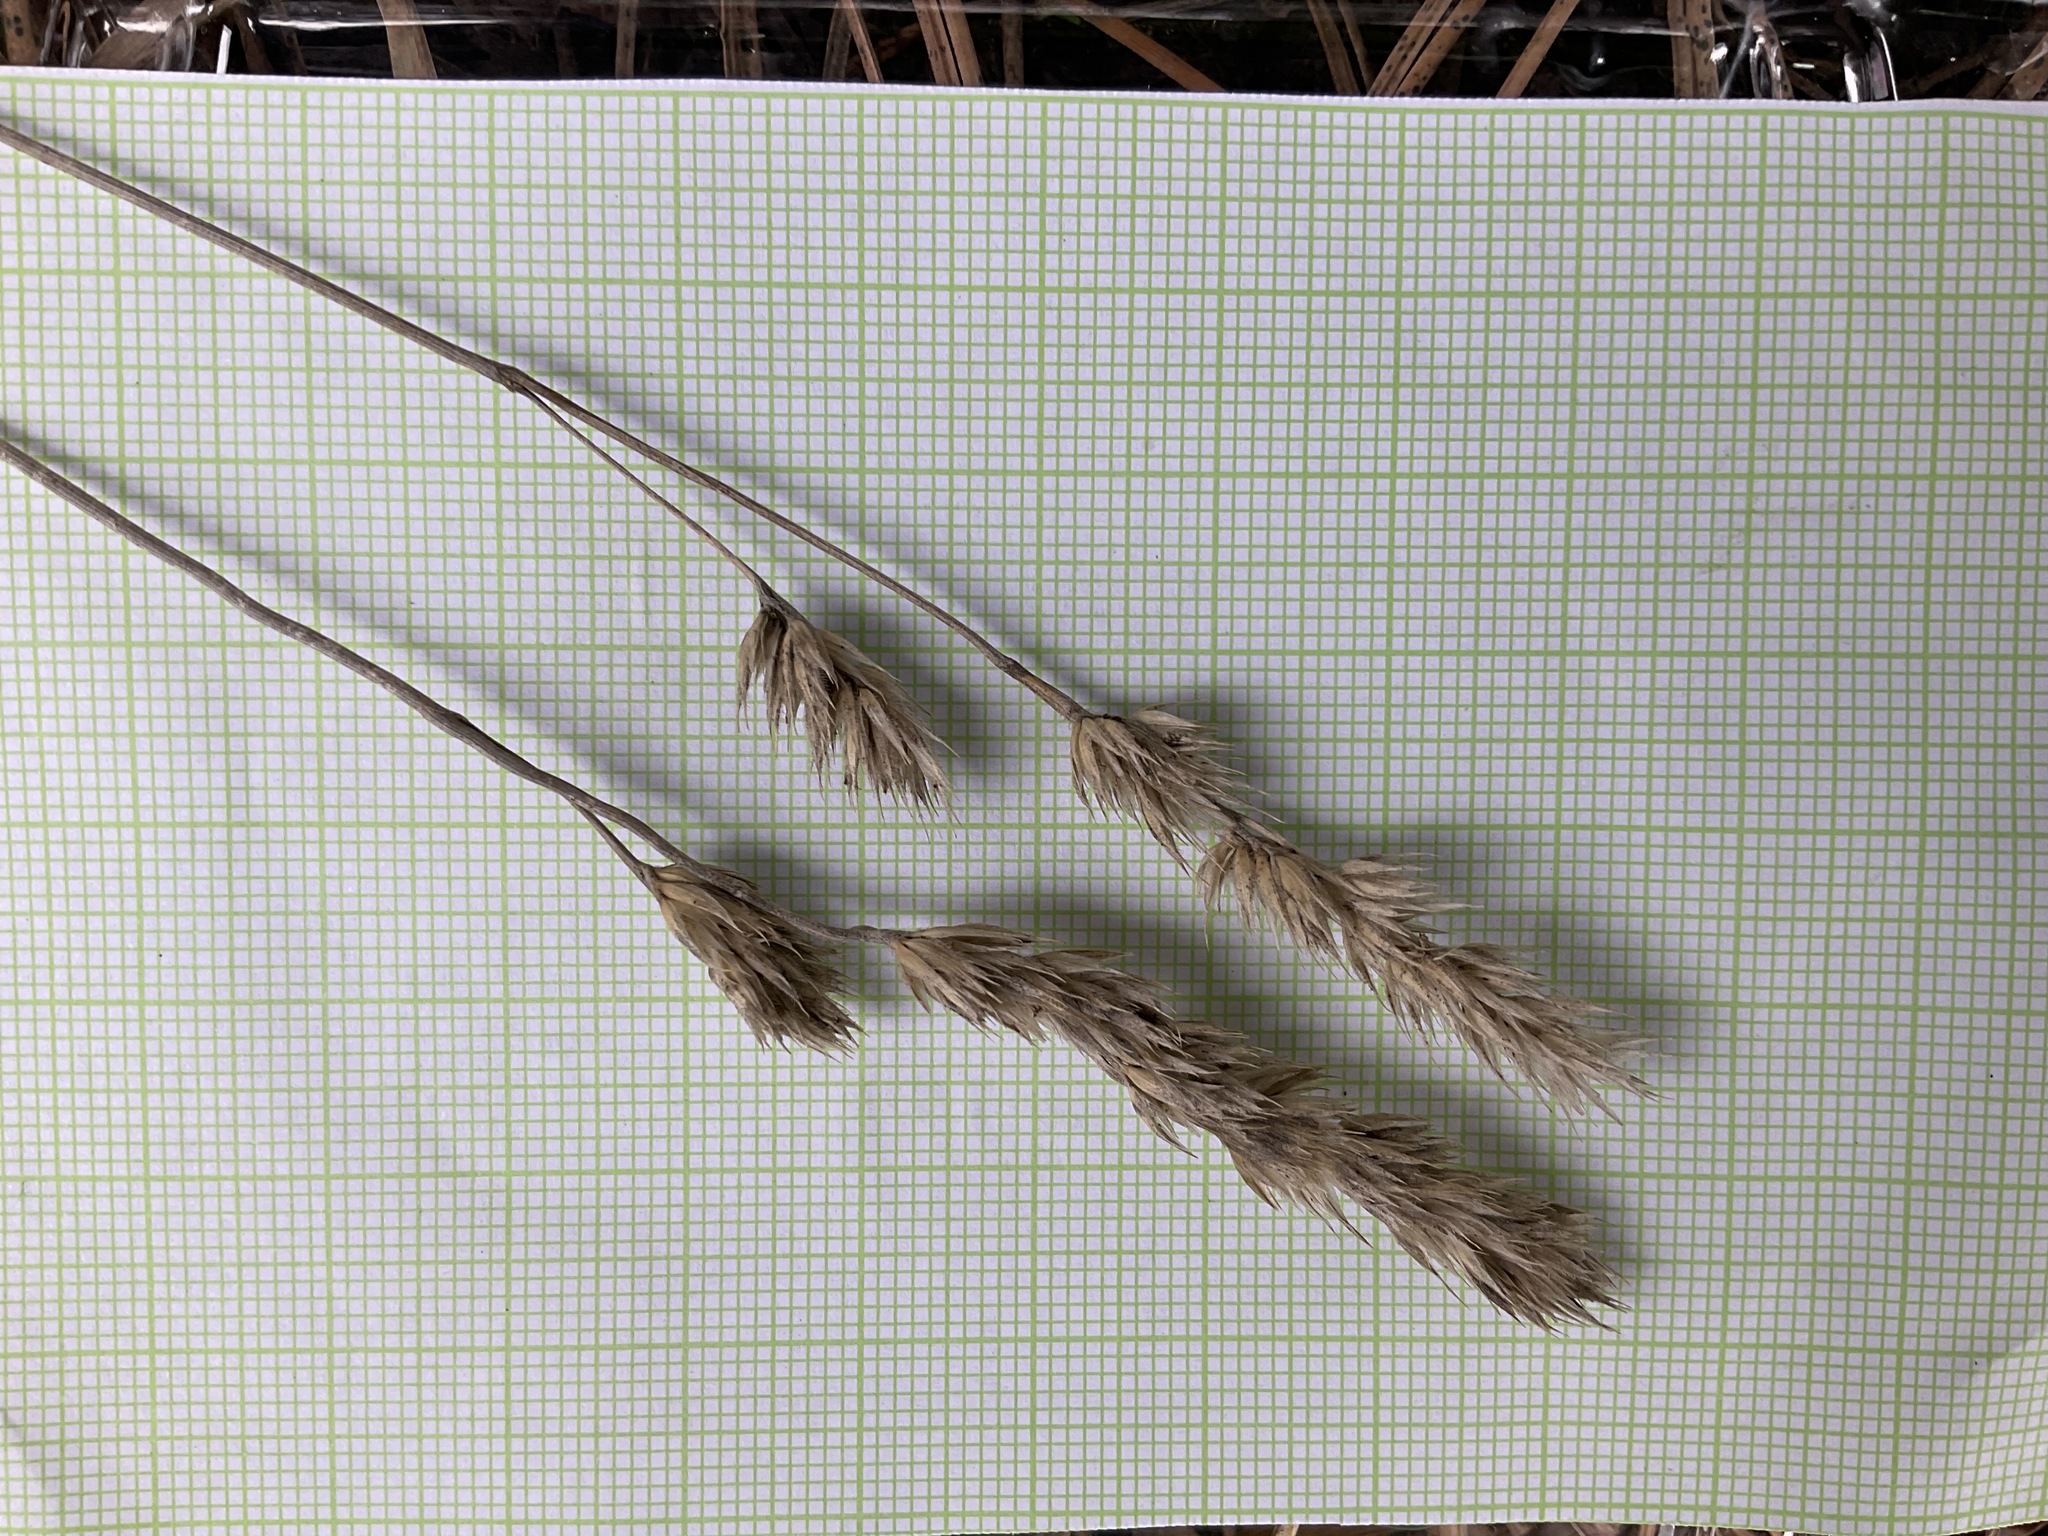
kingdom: Plantae
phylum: Tracheophyta
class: Liliopsida
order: Poales
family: Poaceae
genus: Dactylis
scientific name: Dactylis glomerata
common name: Orchardgrass
